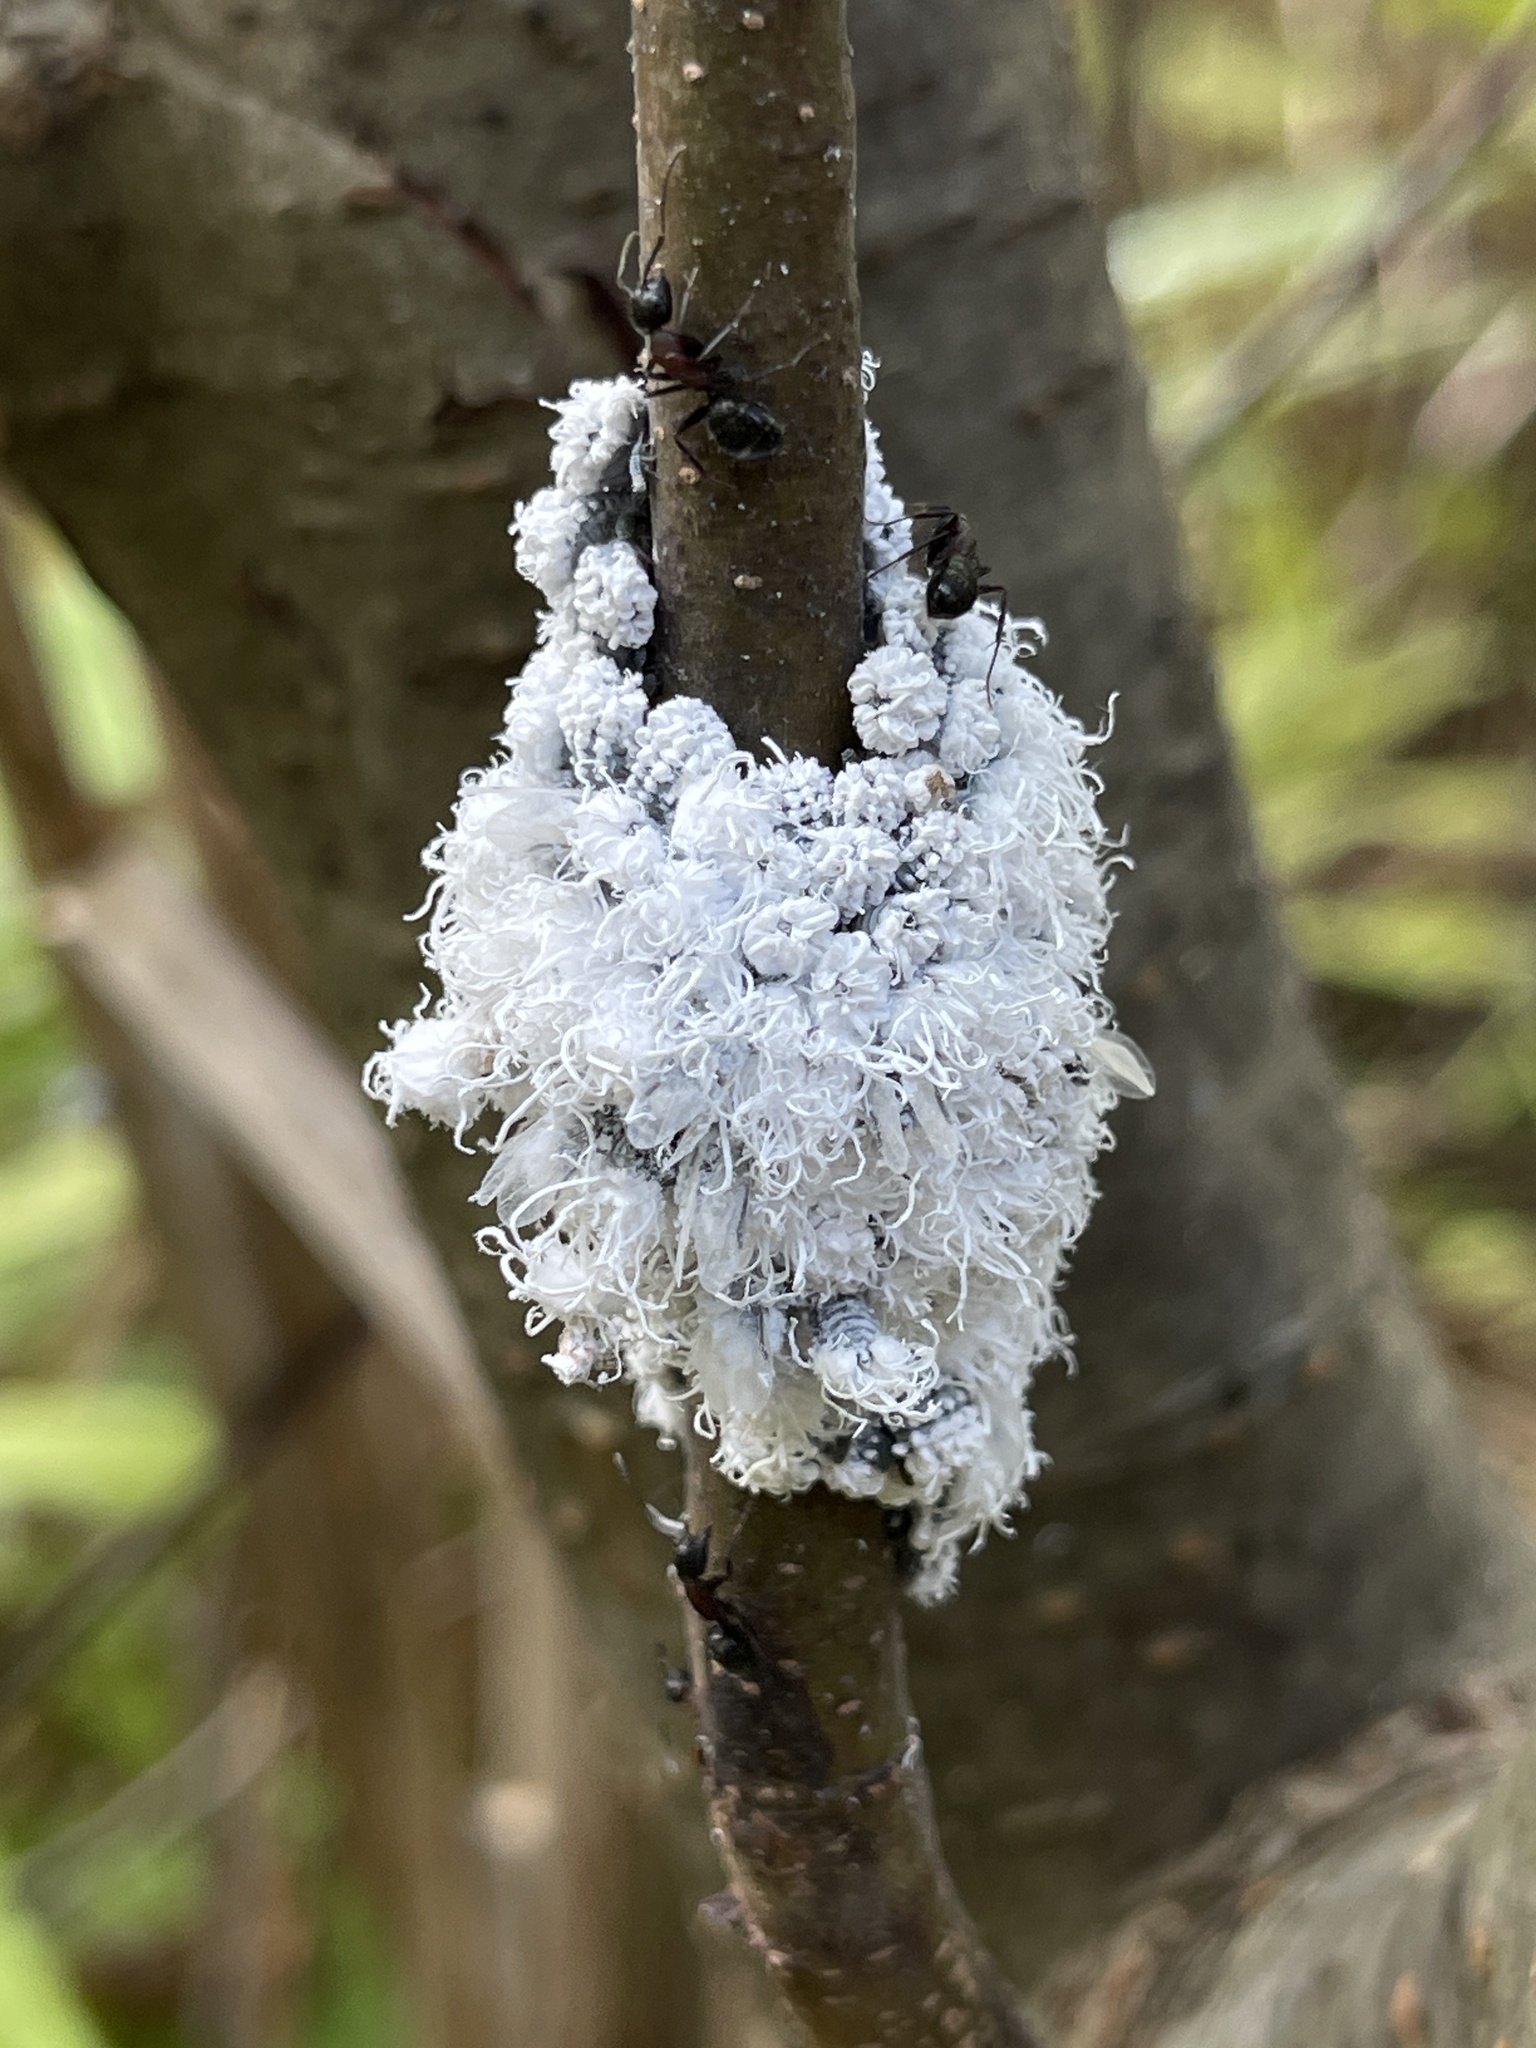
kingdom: Animalia
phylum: Arthropoda
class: Insecta
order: Hemiptera
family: Aphididae
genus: Prociphilus
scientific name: Prociphilus tessellatus
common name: Woolly alder aphid
